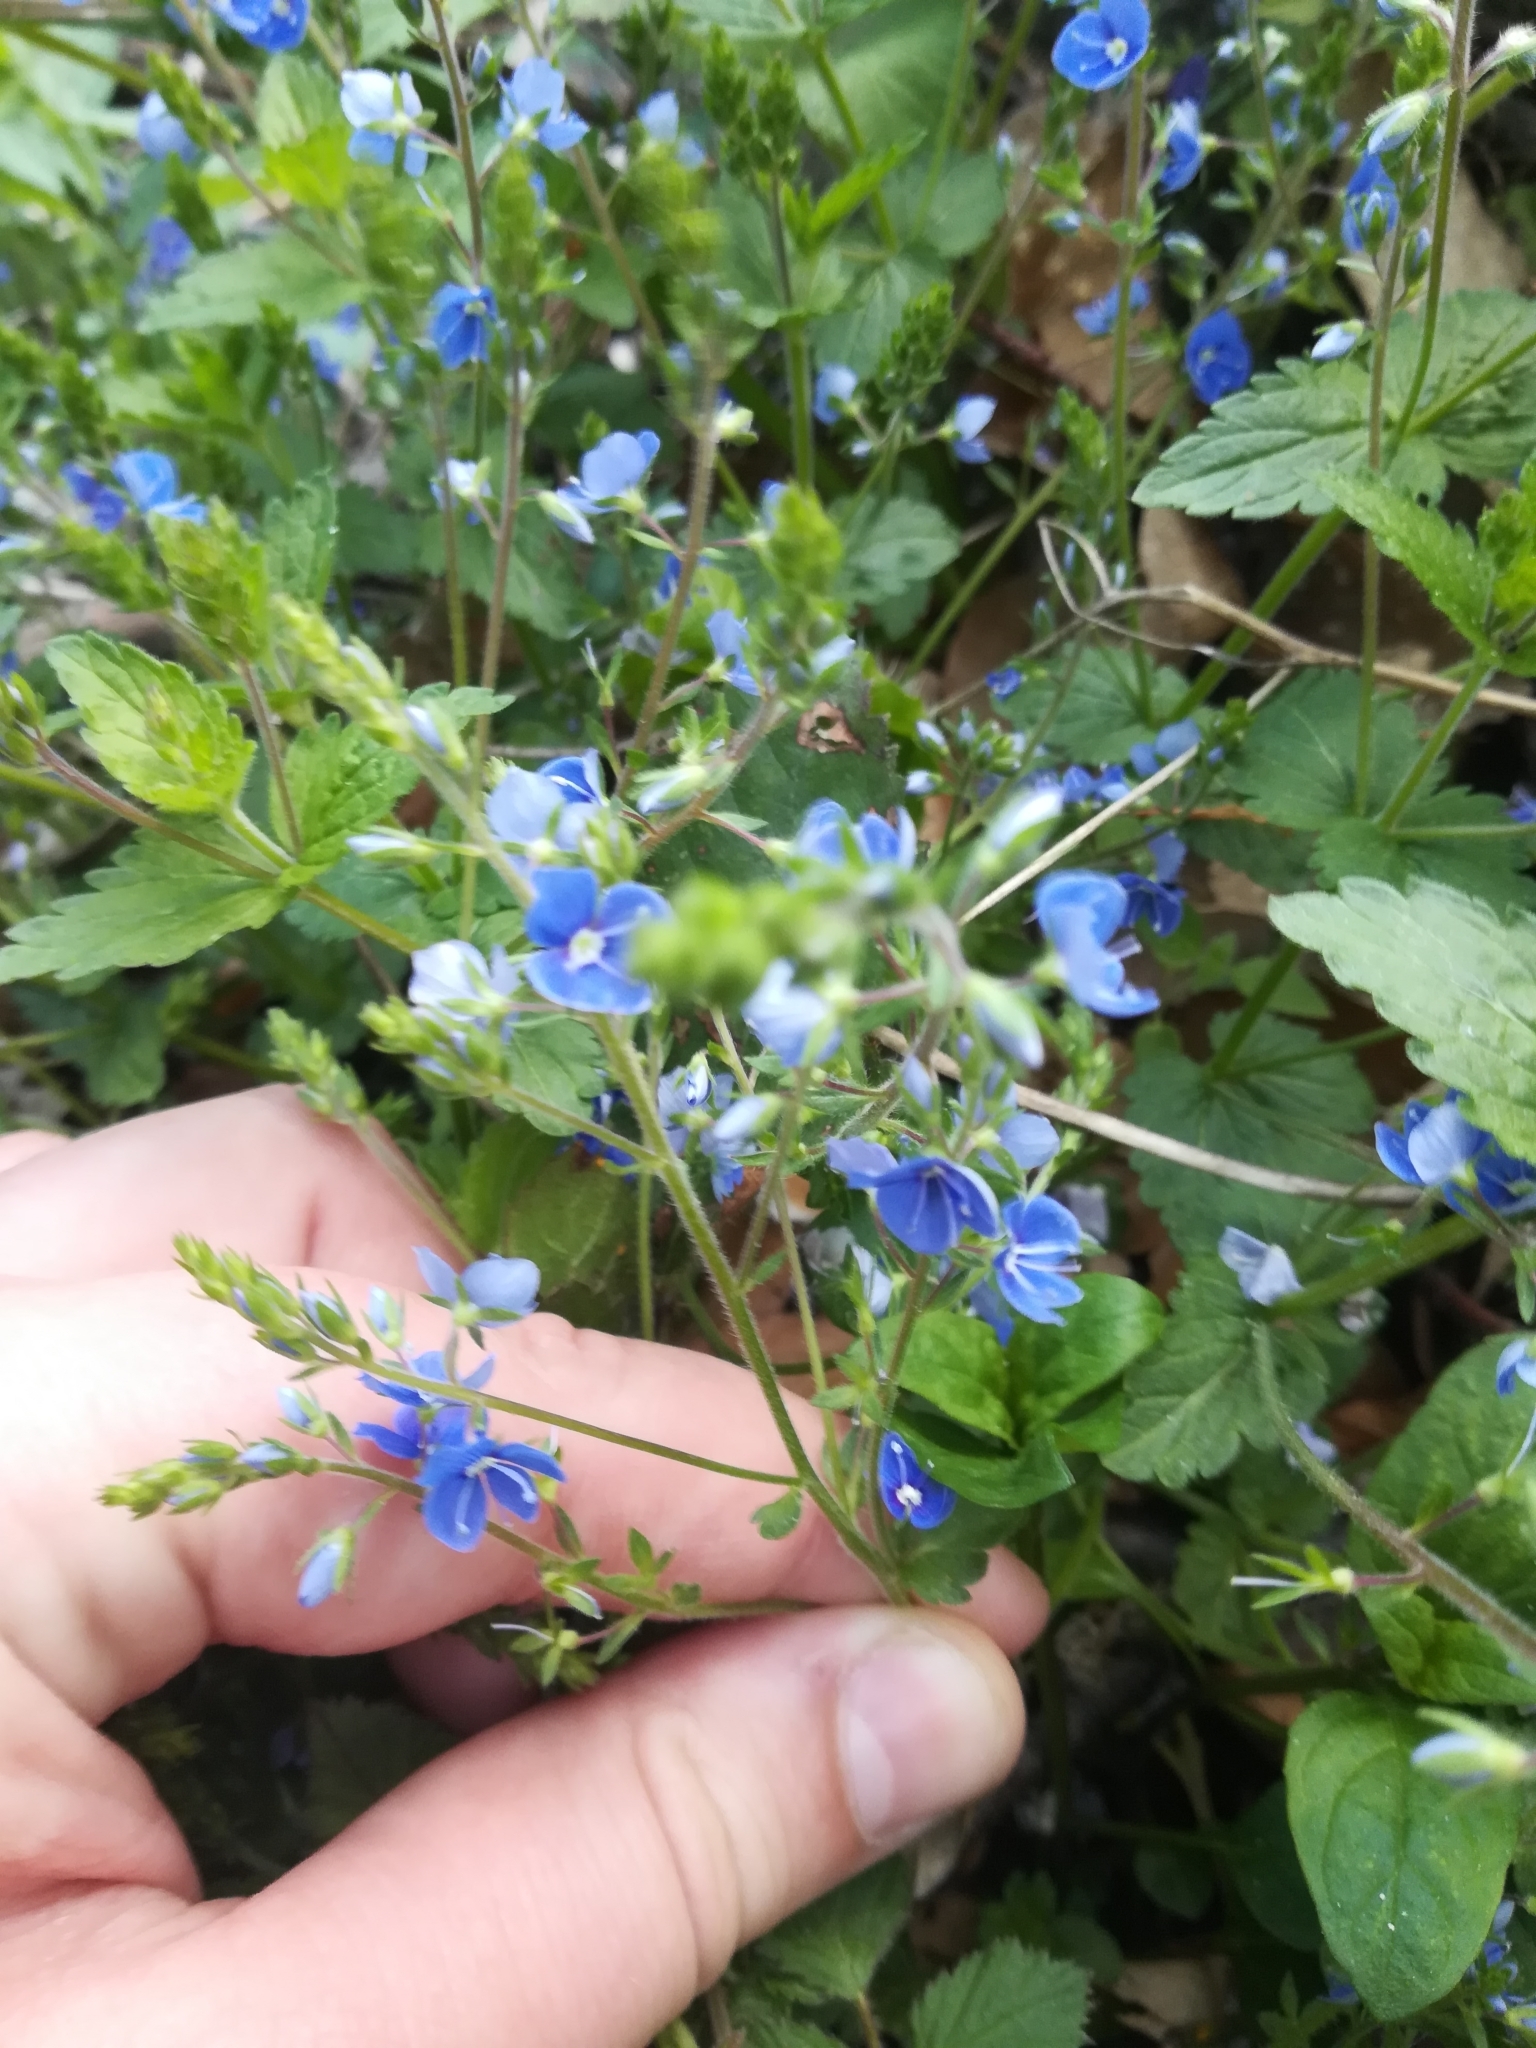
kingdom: Plantae
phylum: Tracheophyta
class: Magnoliopsida
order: Lamiales
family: Plantaginaceae
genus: Veronica
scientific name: Veronica chamaedrys
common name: Germander speedwell
